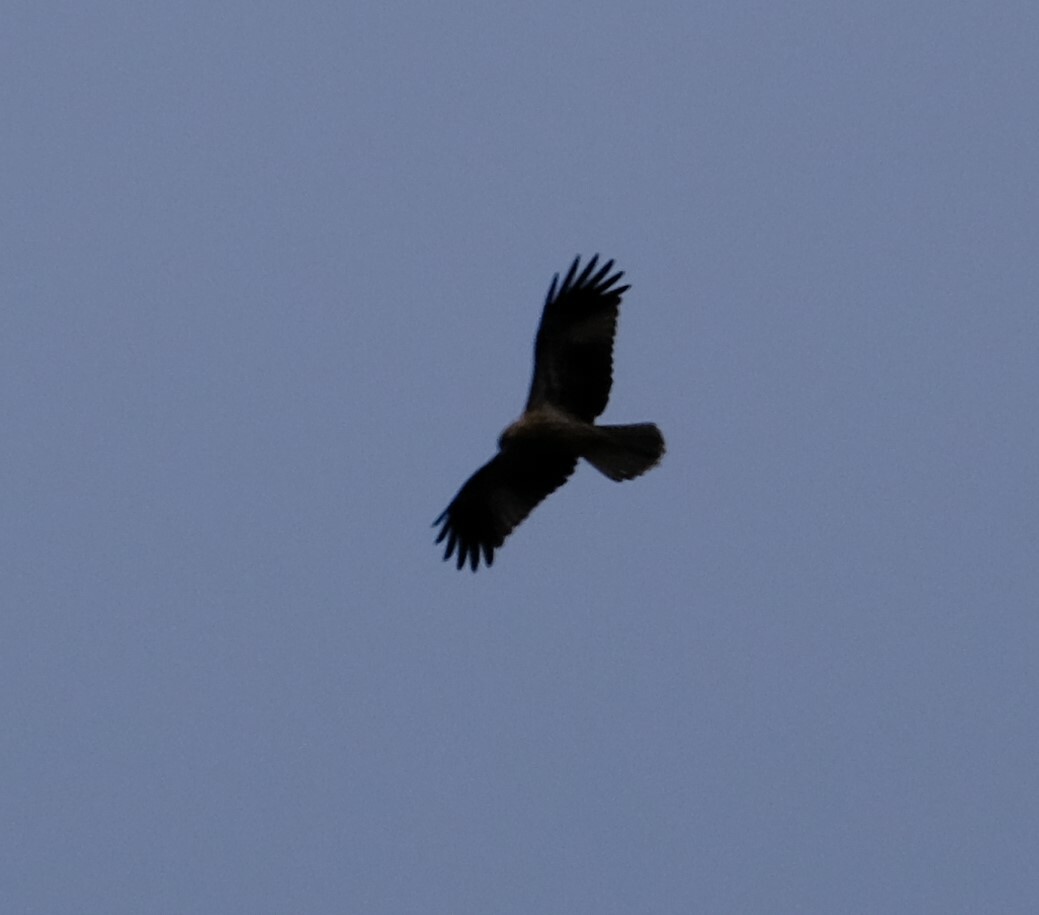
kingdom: Animalia
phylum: Chordata
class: Aves
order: Accipitriformes
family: Accipitridae
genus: Haliastur
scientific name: Haliastur sphenurus
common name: Whistling kite
